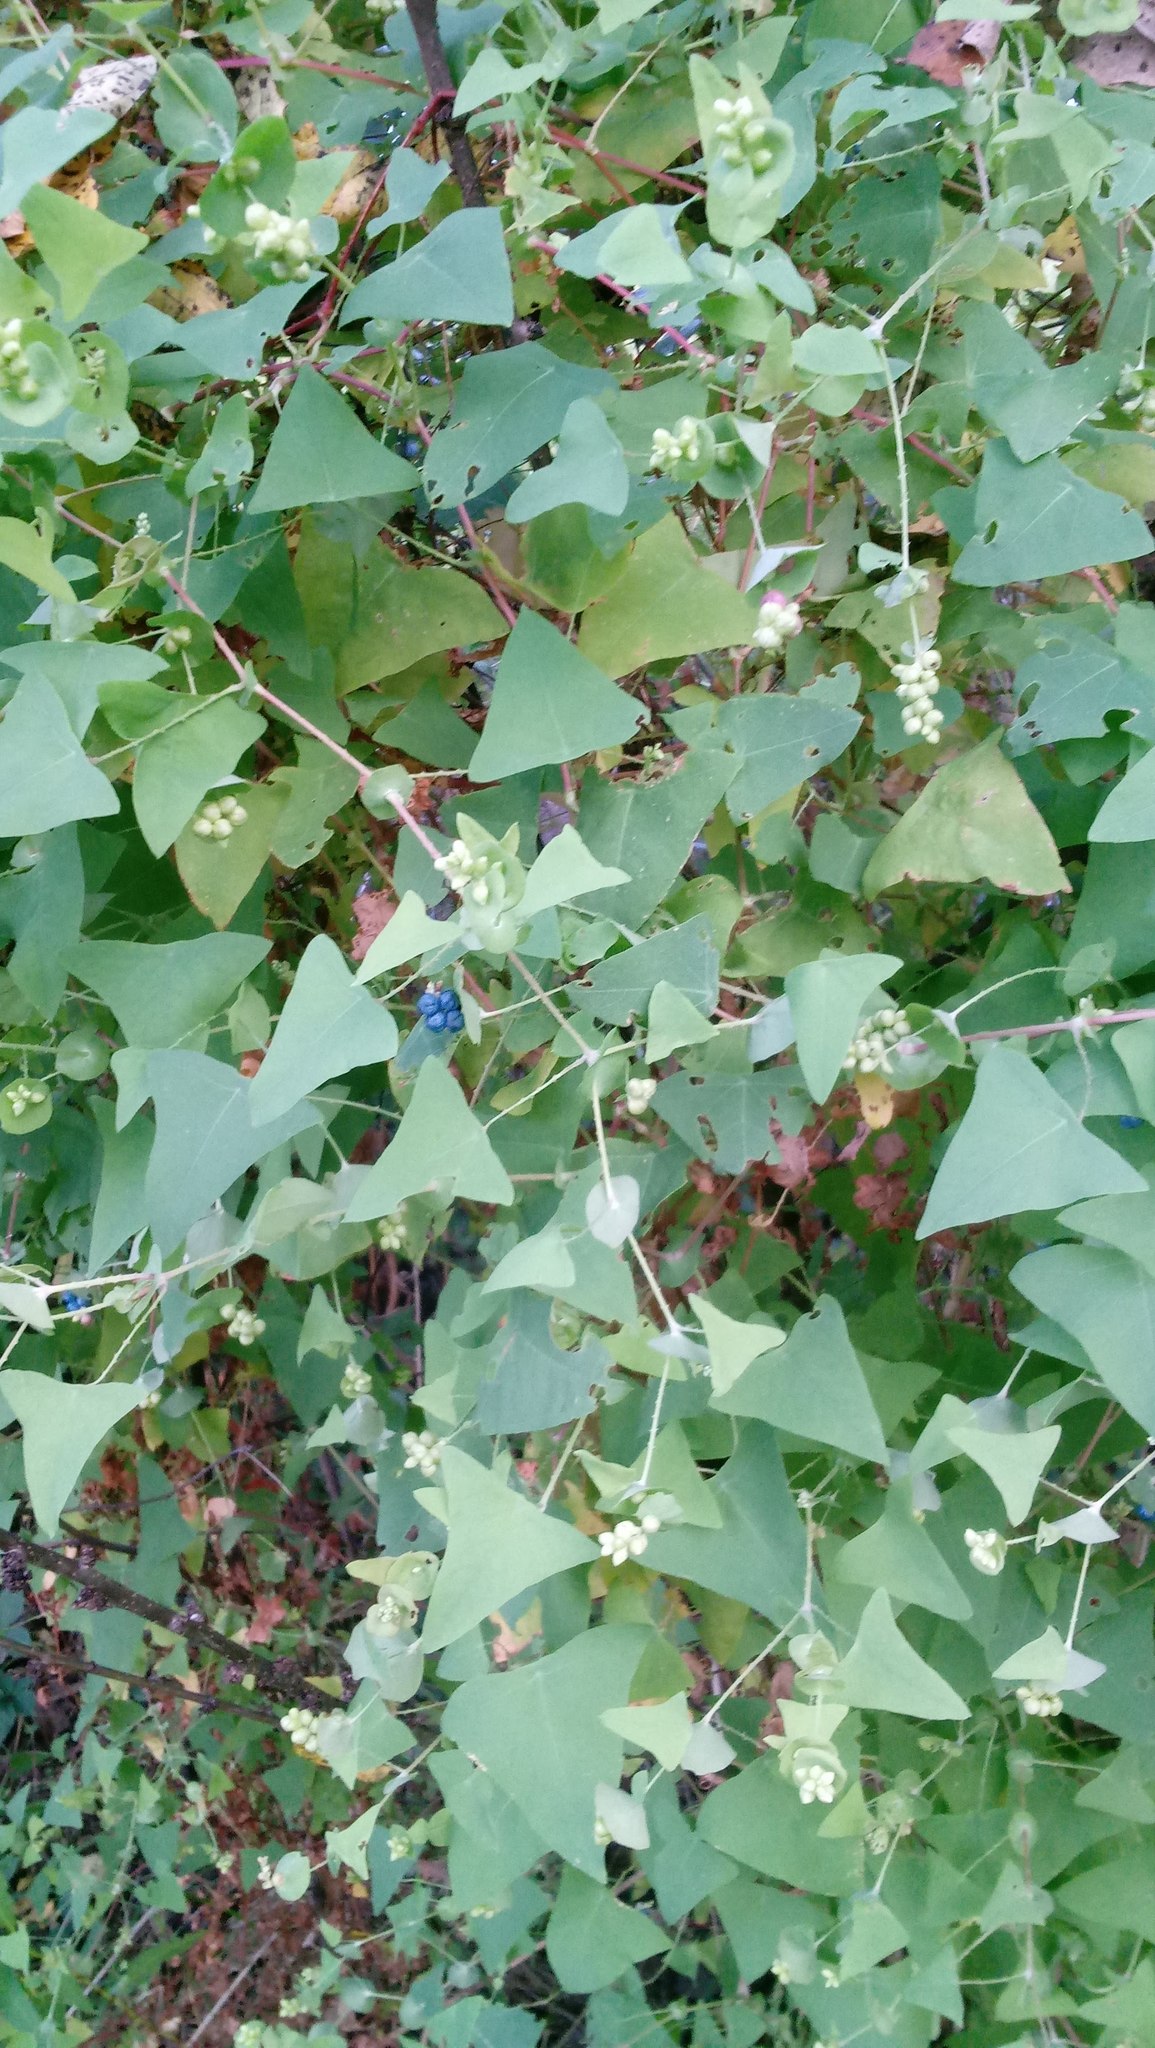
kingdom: Plantae
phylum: Tracheophyta
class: Magnoliopsida
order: Caryophyllales
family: Polygonaceae
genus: Persicaria
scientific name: Persicaria perfoliata
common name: Asiatic tearthumb
